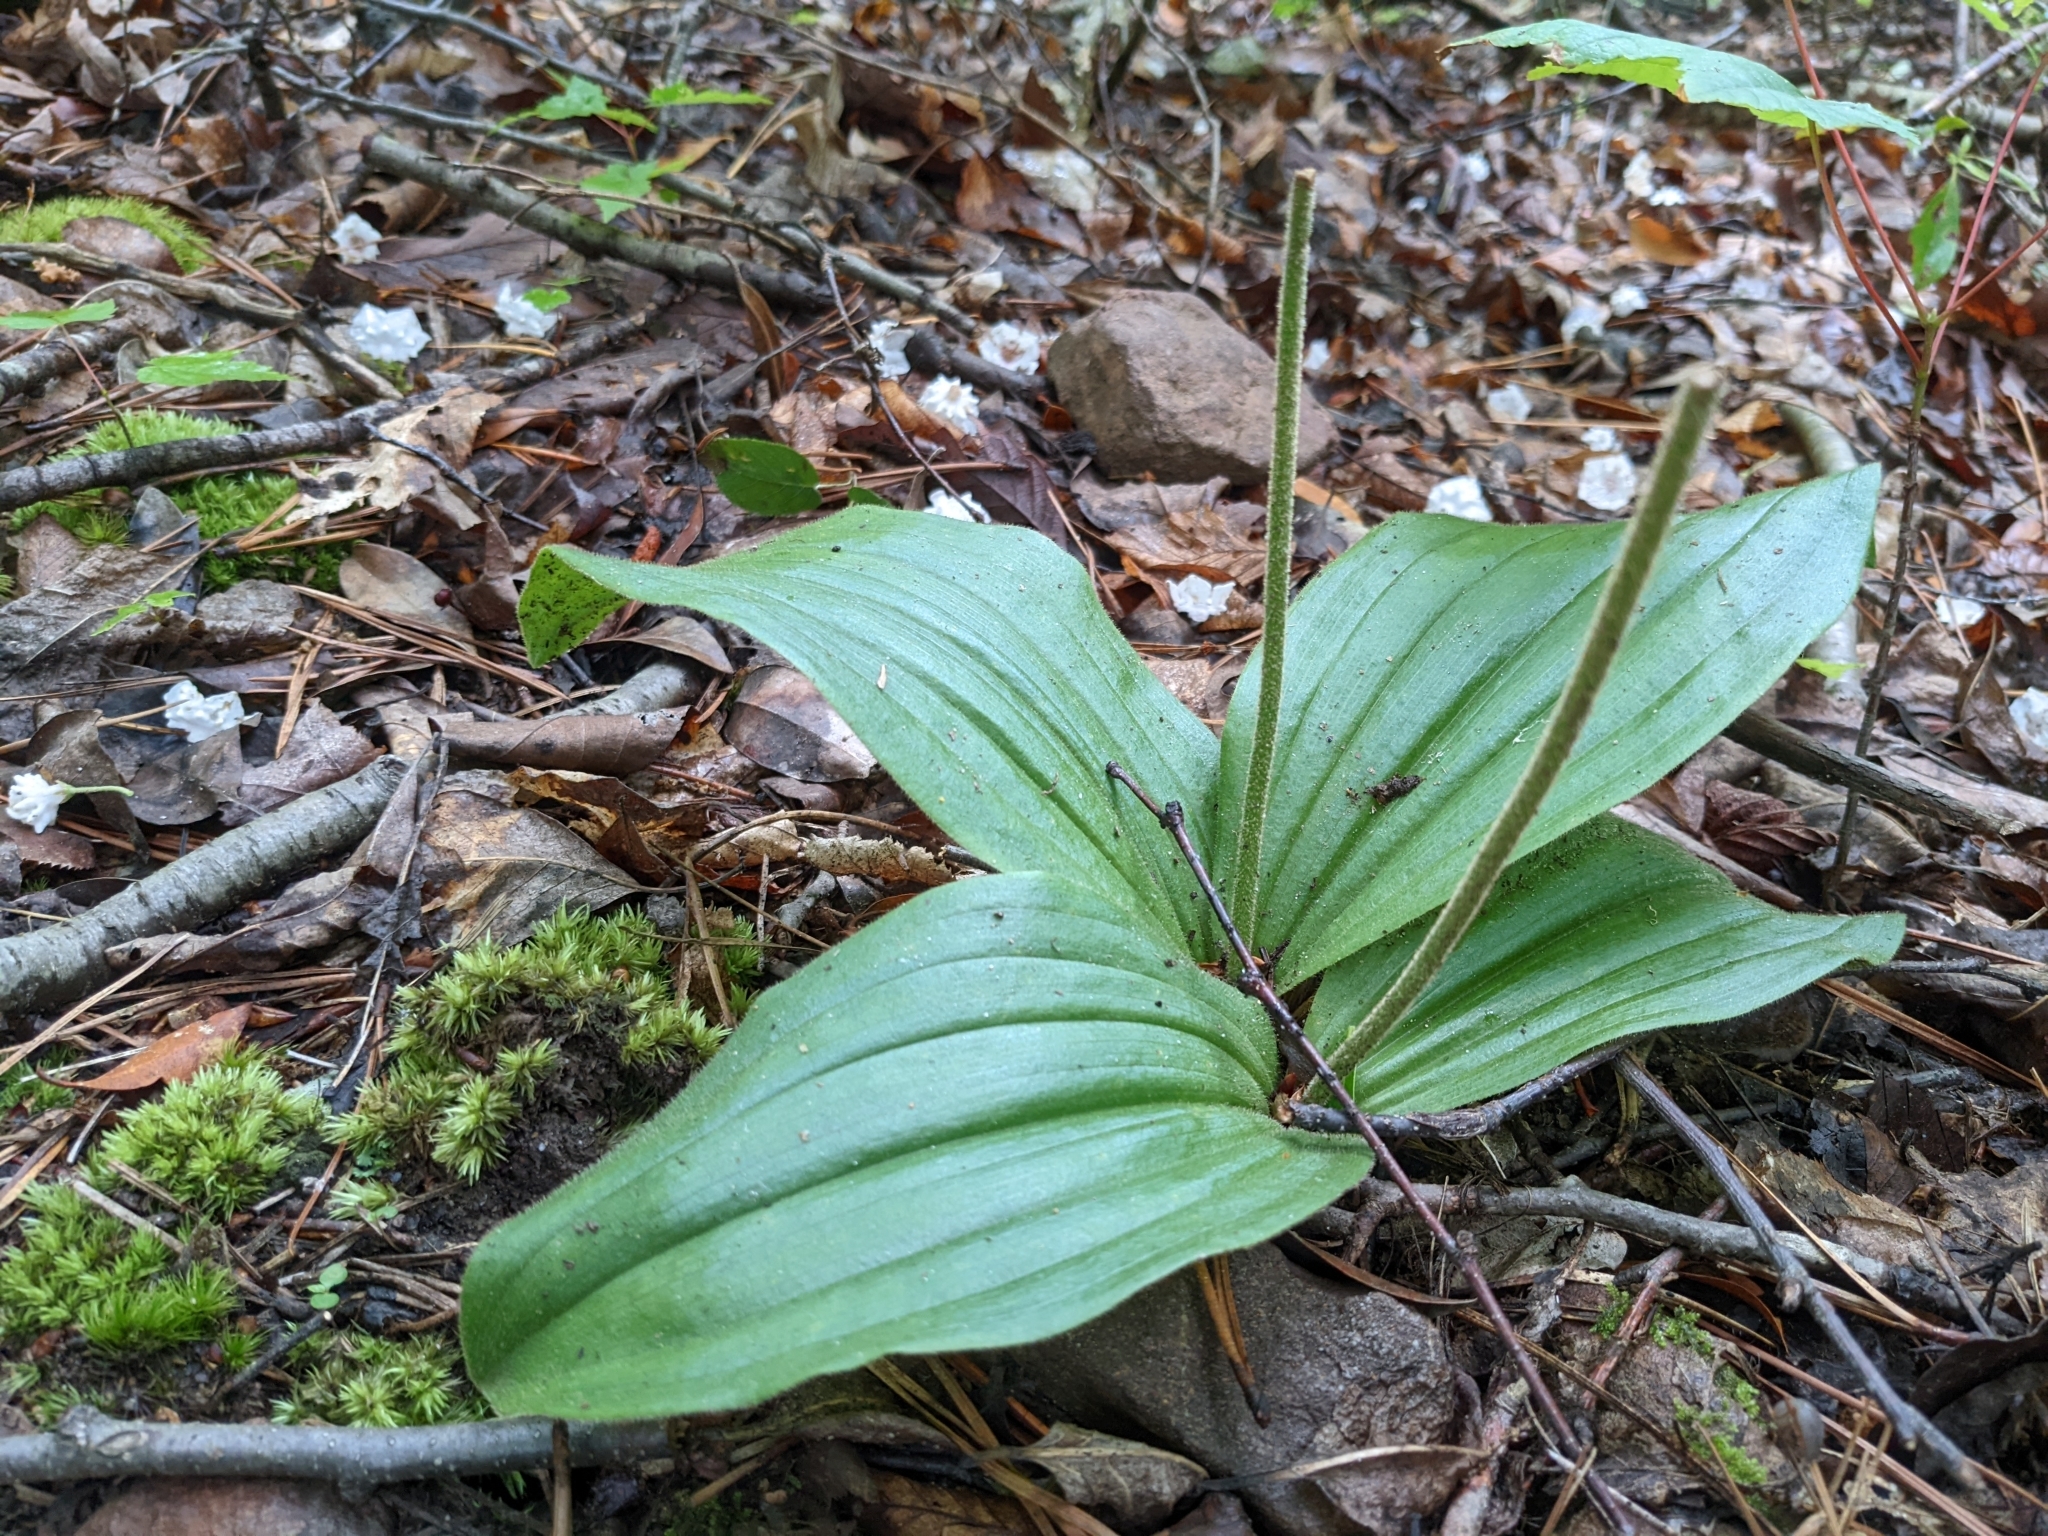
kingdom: Plantae
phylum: Tracheophyta
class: Liliopsida
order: Asparagales
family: Orchidaceae
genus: Cypripedium
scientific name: Cypripedium acaule
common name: Pink lady's-slipper
